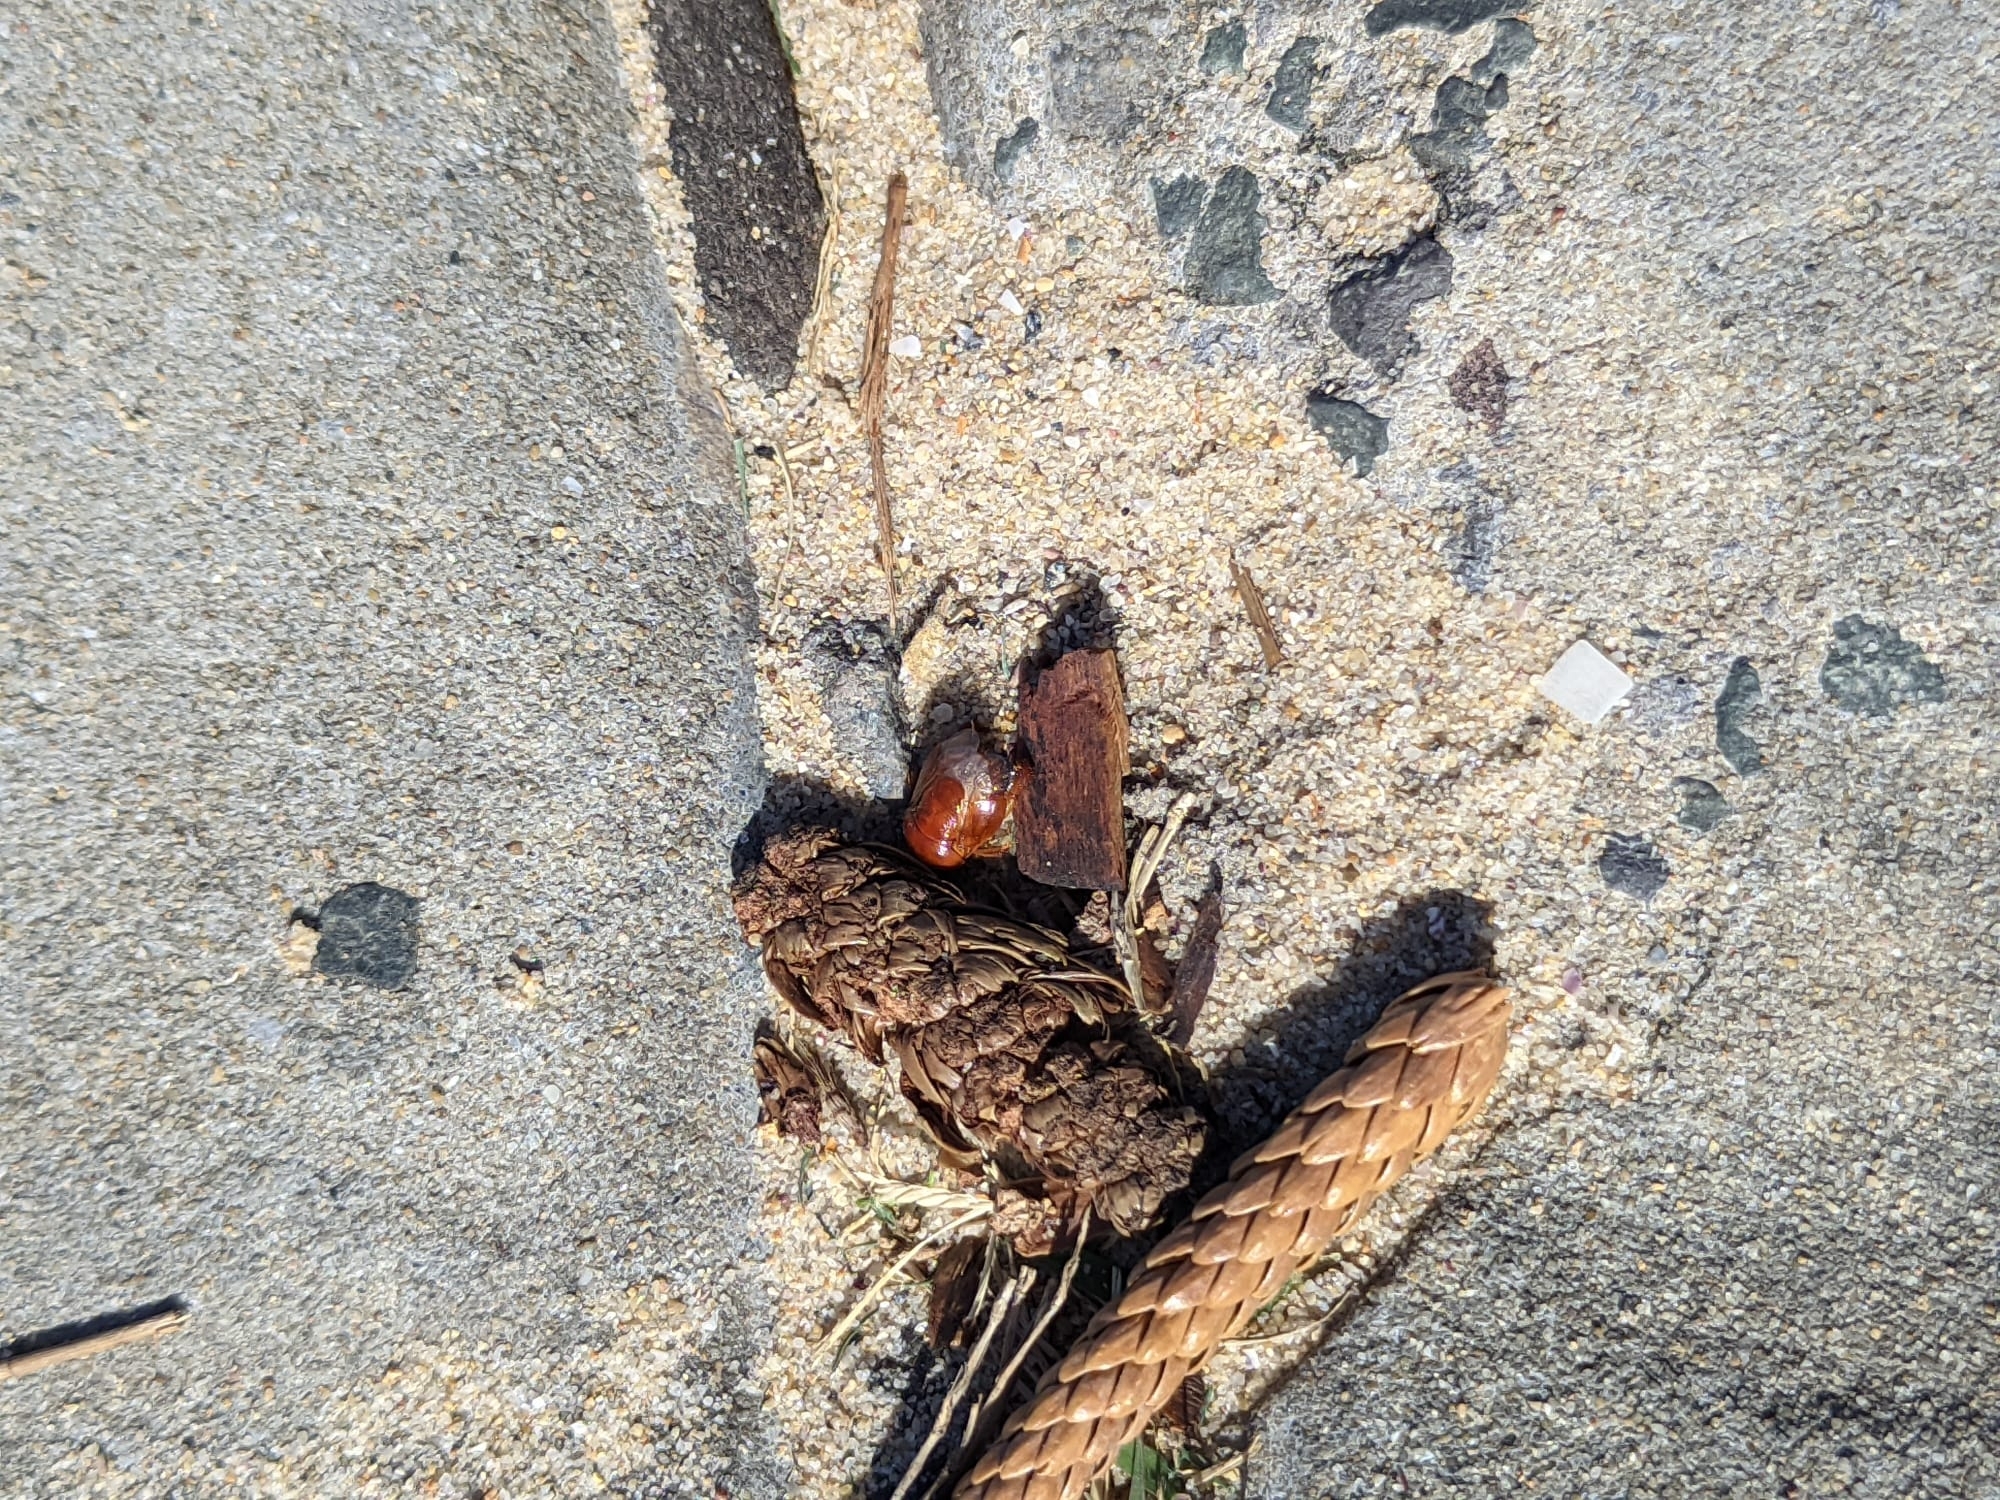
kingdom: Animalia
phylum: Arthropoda
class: Insecta
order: Hemiptera
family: Cydnidae
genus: Scaptocoris
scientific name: Scaptocoris
